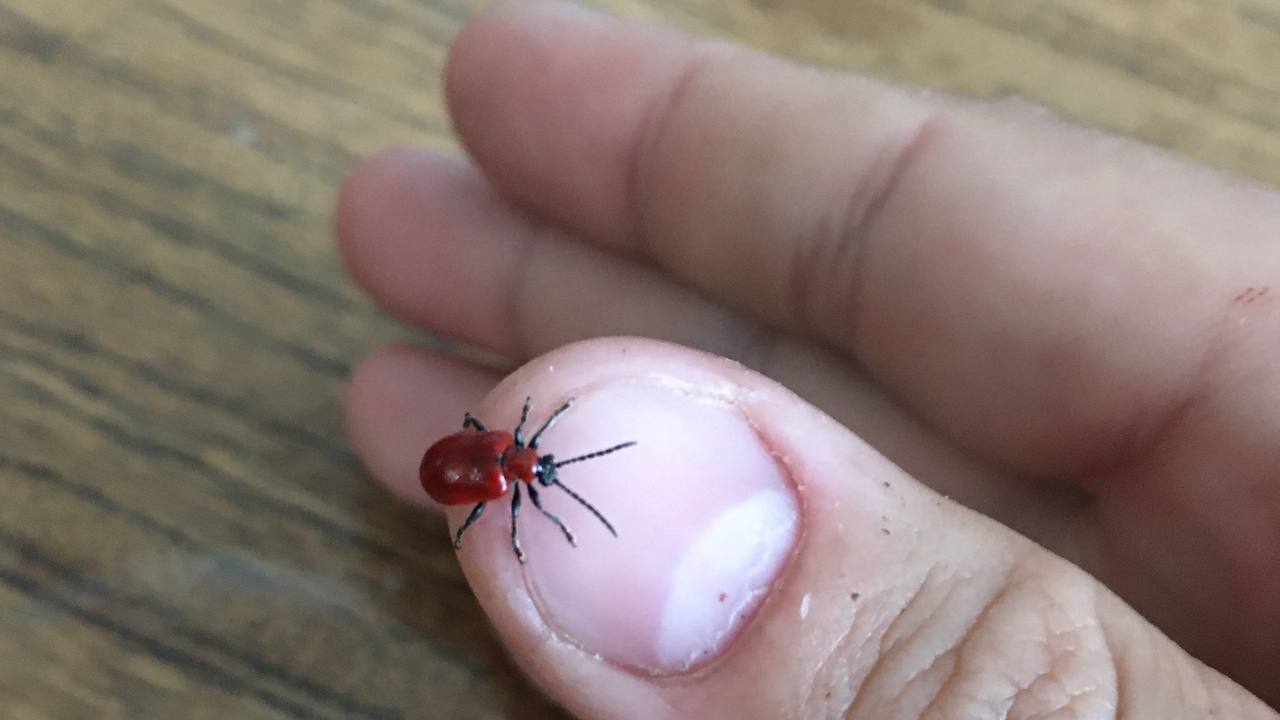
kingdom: Animalia
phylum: Arthropoda
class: Insecta
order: Coleoptera
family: Chrysomelidae
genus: Lilioceris
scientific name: Lilioceris lilii
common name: Lily beetle
